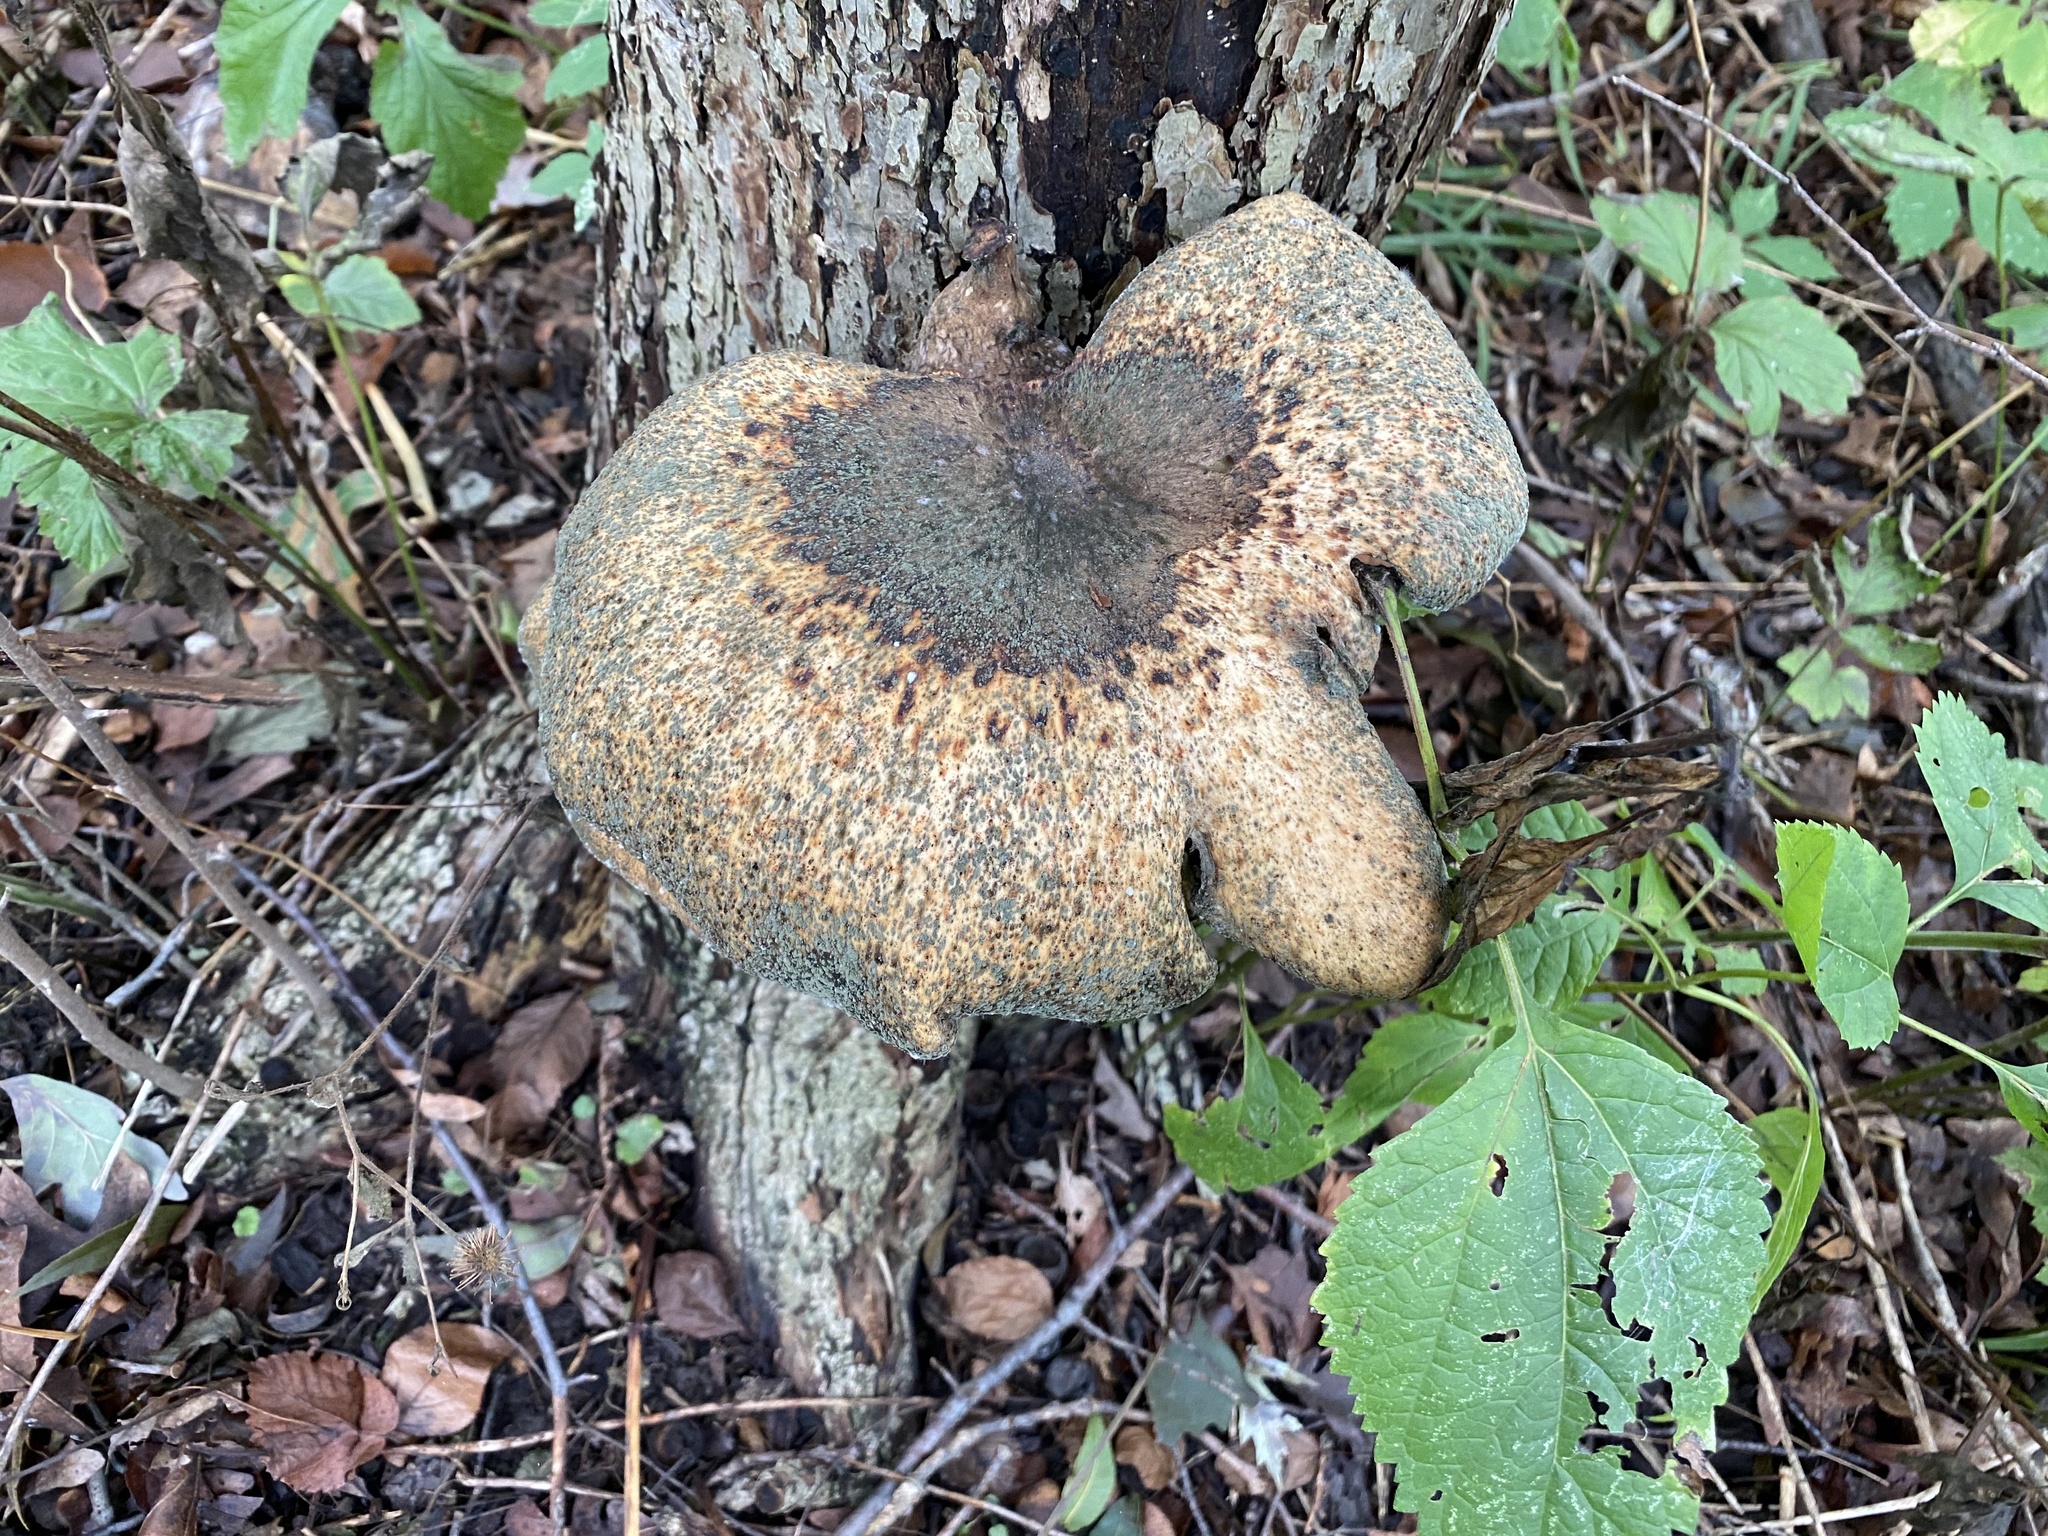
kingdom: Fungi
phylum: Basidiomycota
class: Agaricomycetes
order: Polyporales
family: Polyporaceae
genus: Cerioporus
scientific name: Cerioporus squamosus
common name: Dryad's saddle
